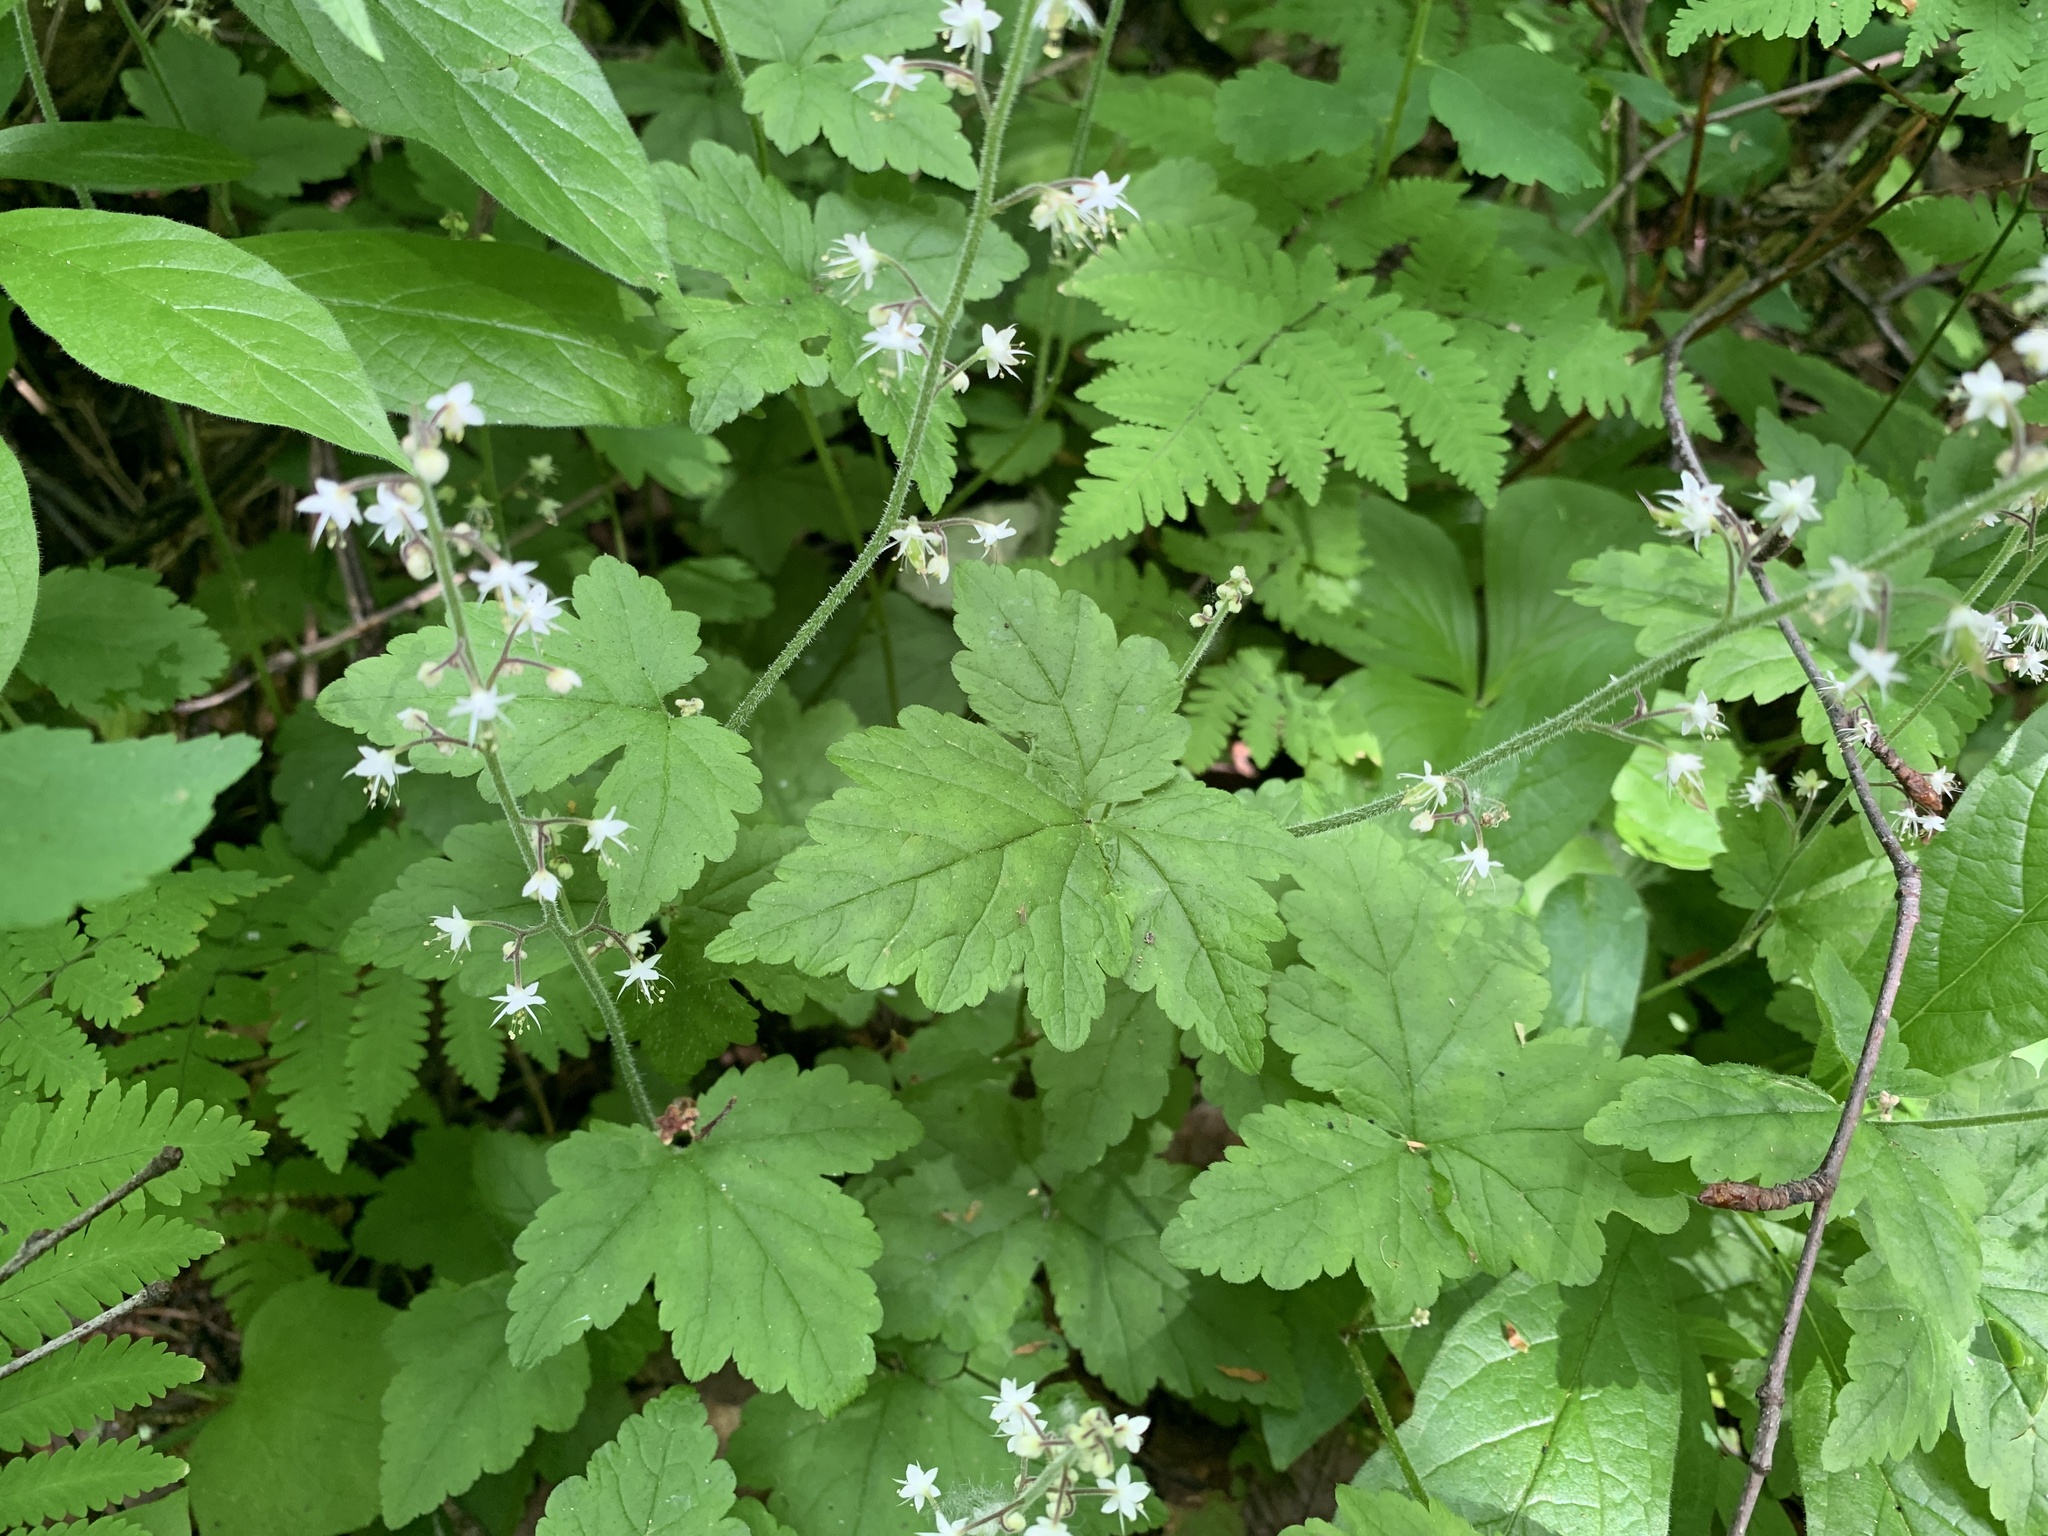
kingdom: Plantae
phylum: Tracheophyta
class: Magnoliopsida
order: Saxifragales
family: Saxifragaceae
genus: Tiarella
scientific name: Tiarella trifoliata
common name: Sugar-scoop
